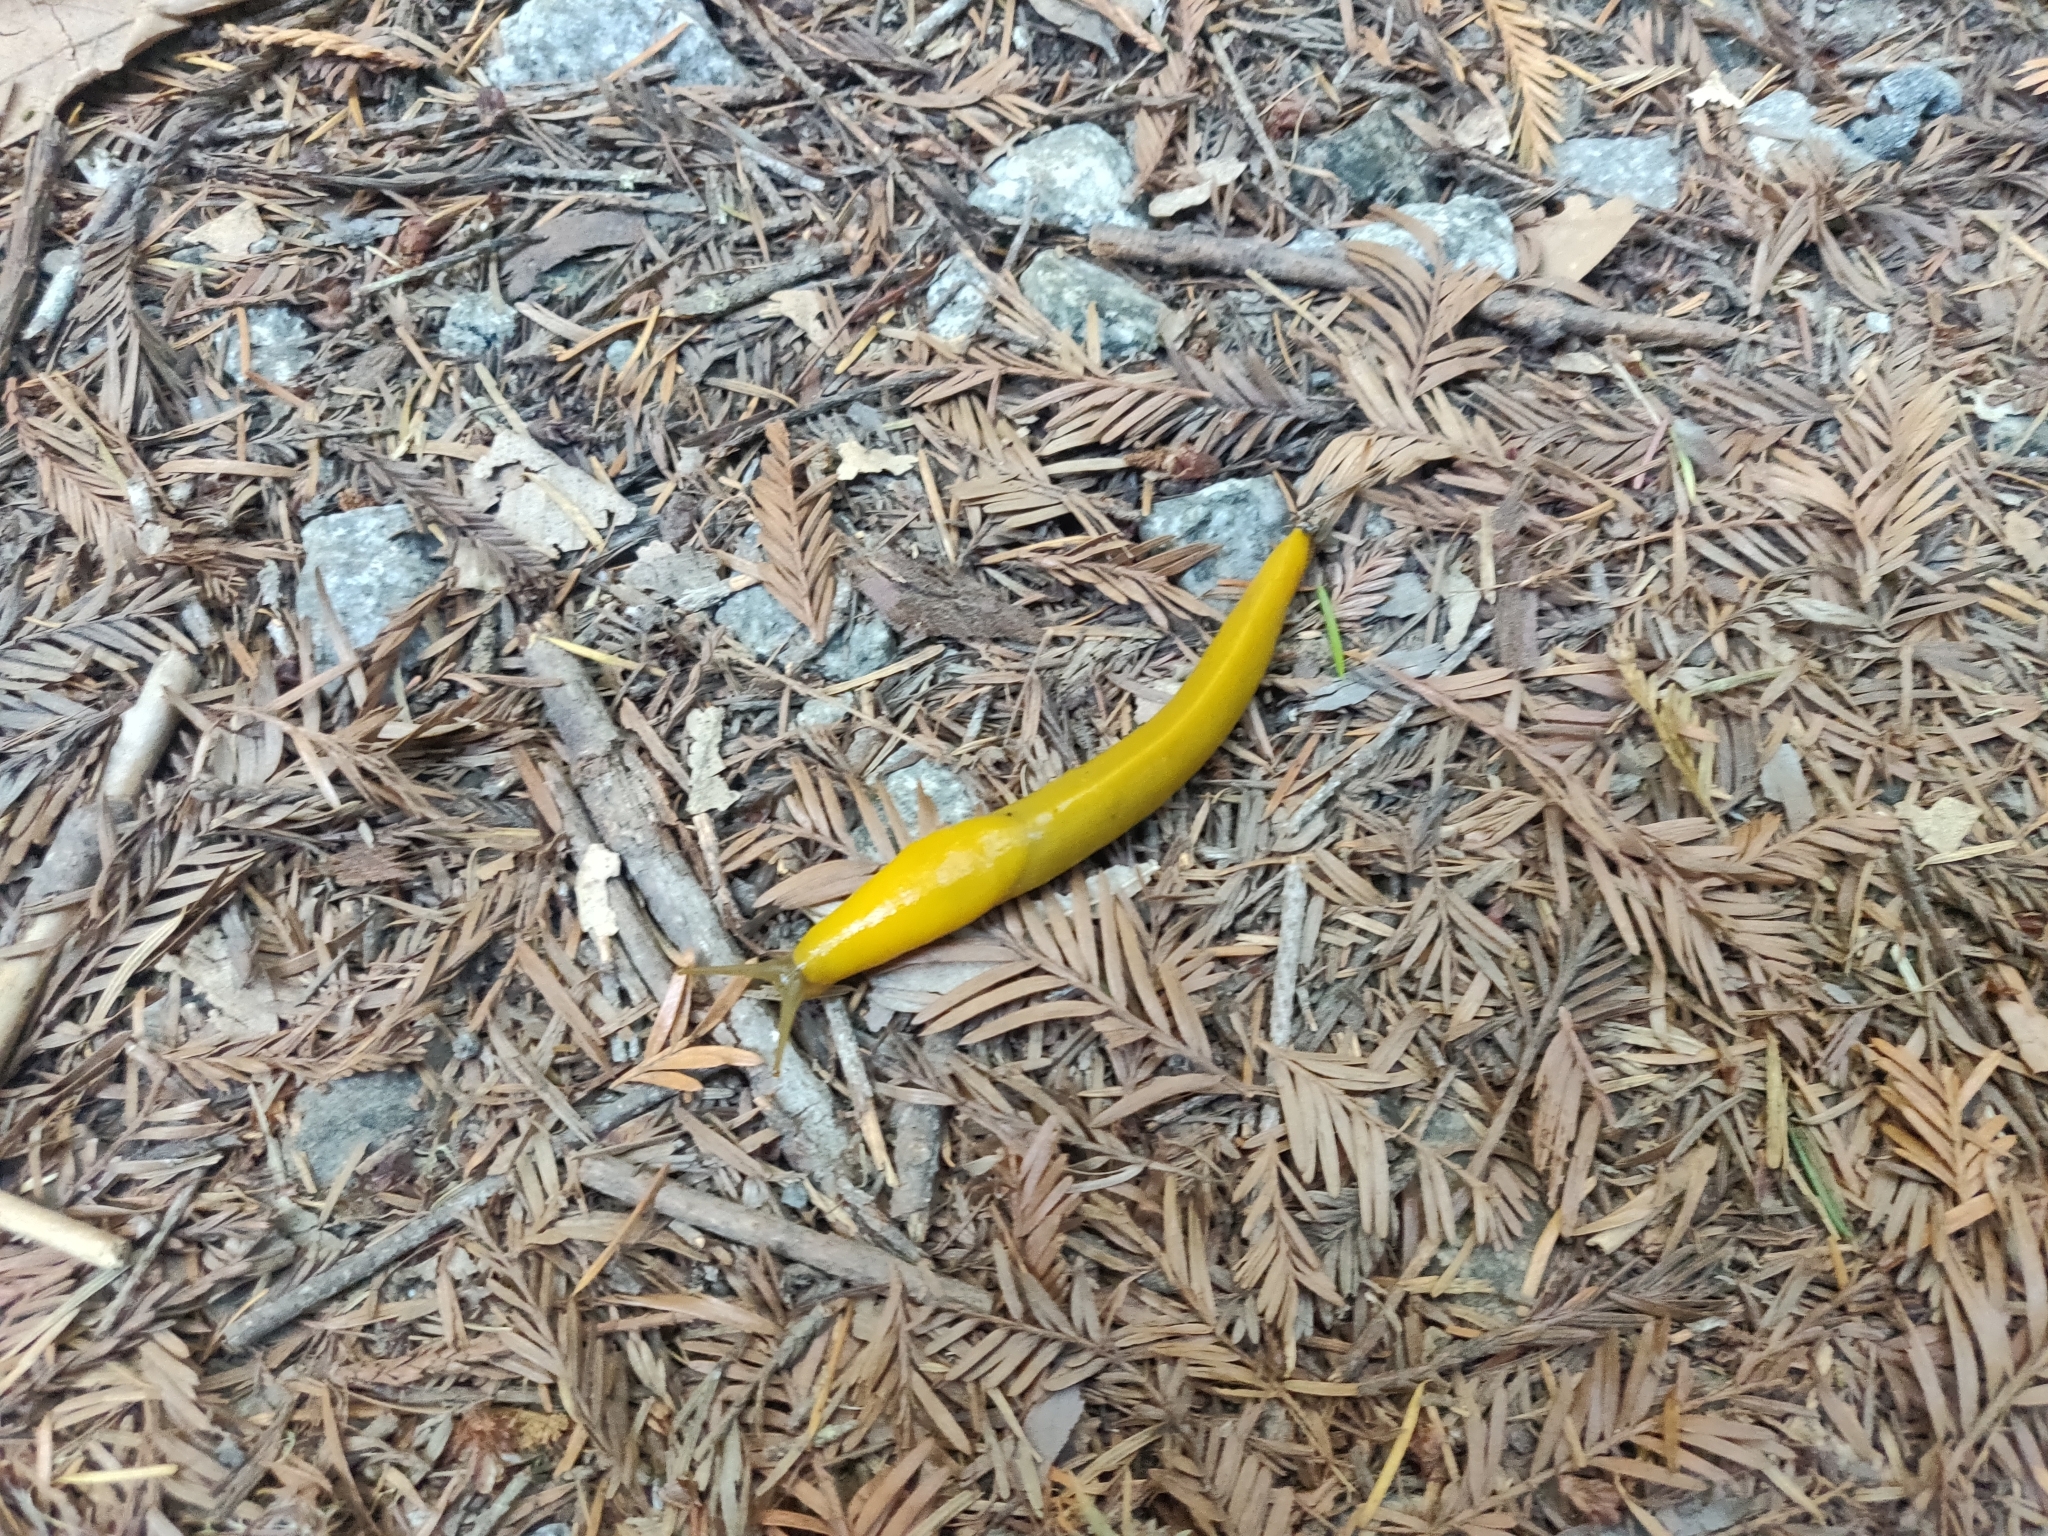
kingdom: Animalia
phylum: Mollusca
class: Gastropoda
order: Stylommatophora
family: Ariolimacidae
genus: Ariolimax
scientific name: Ariolimax californicus
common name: California banana slug
